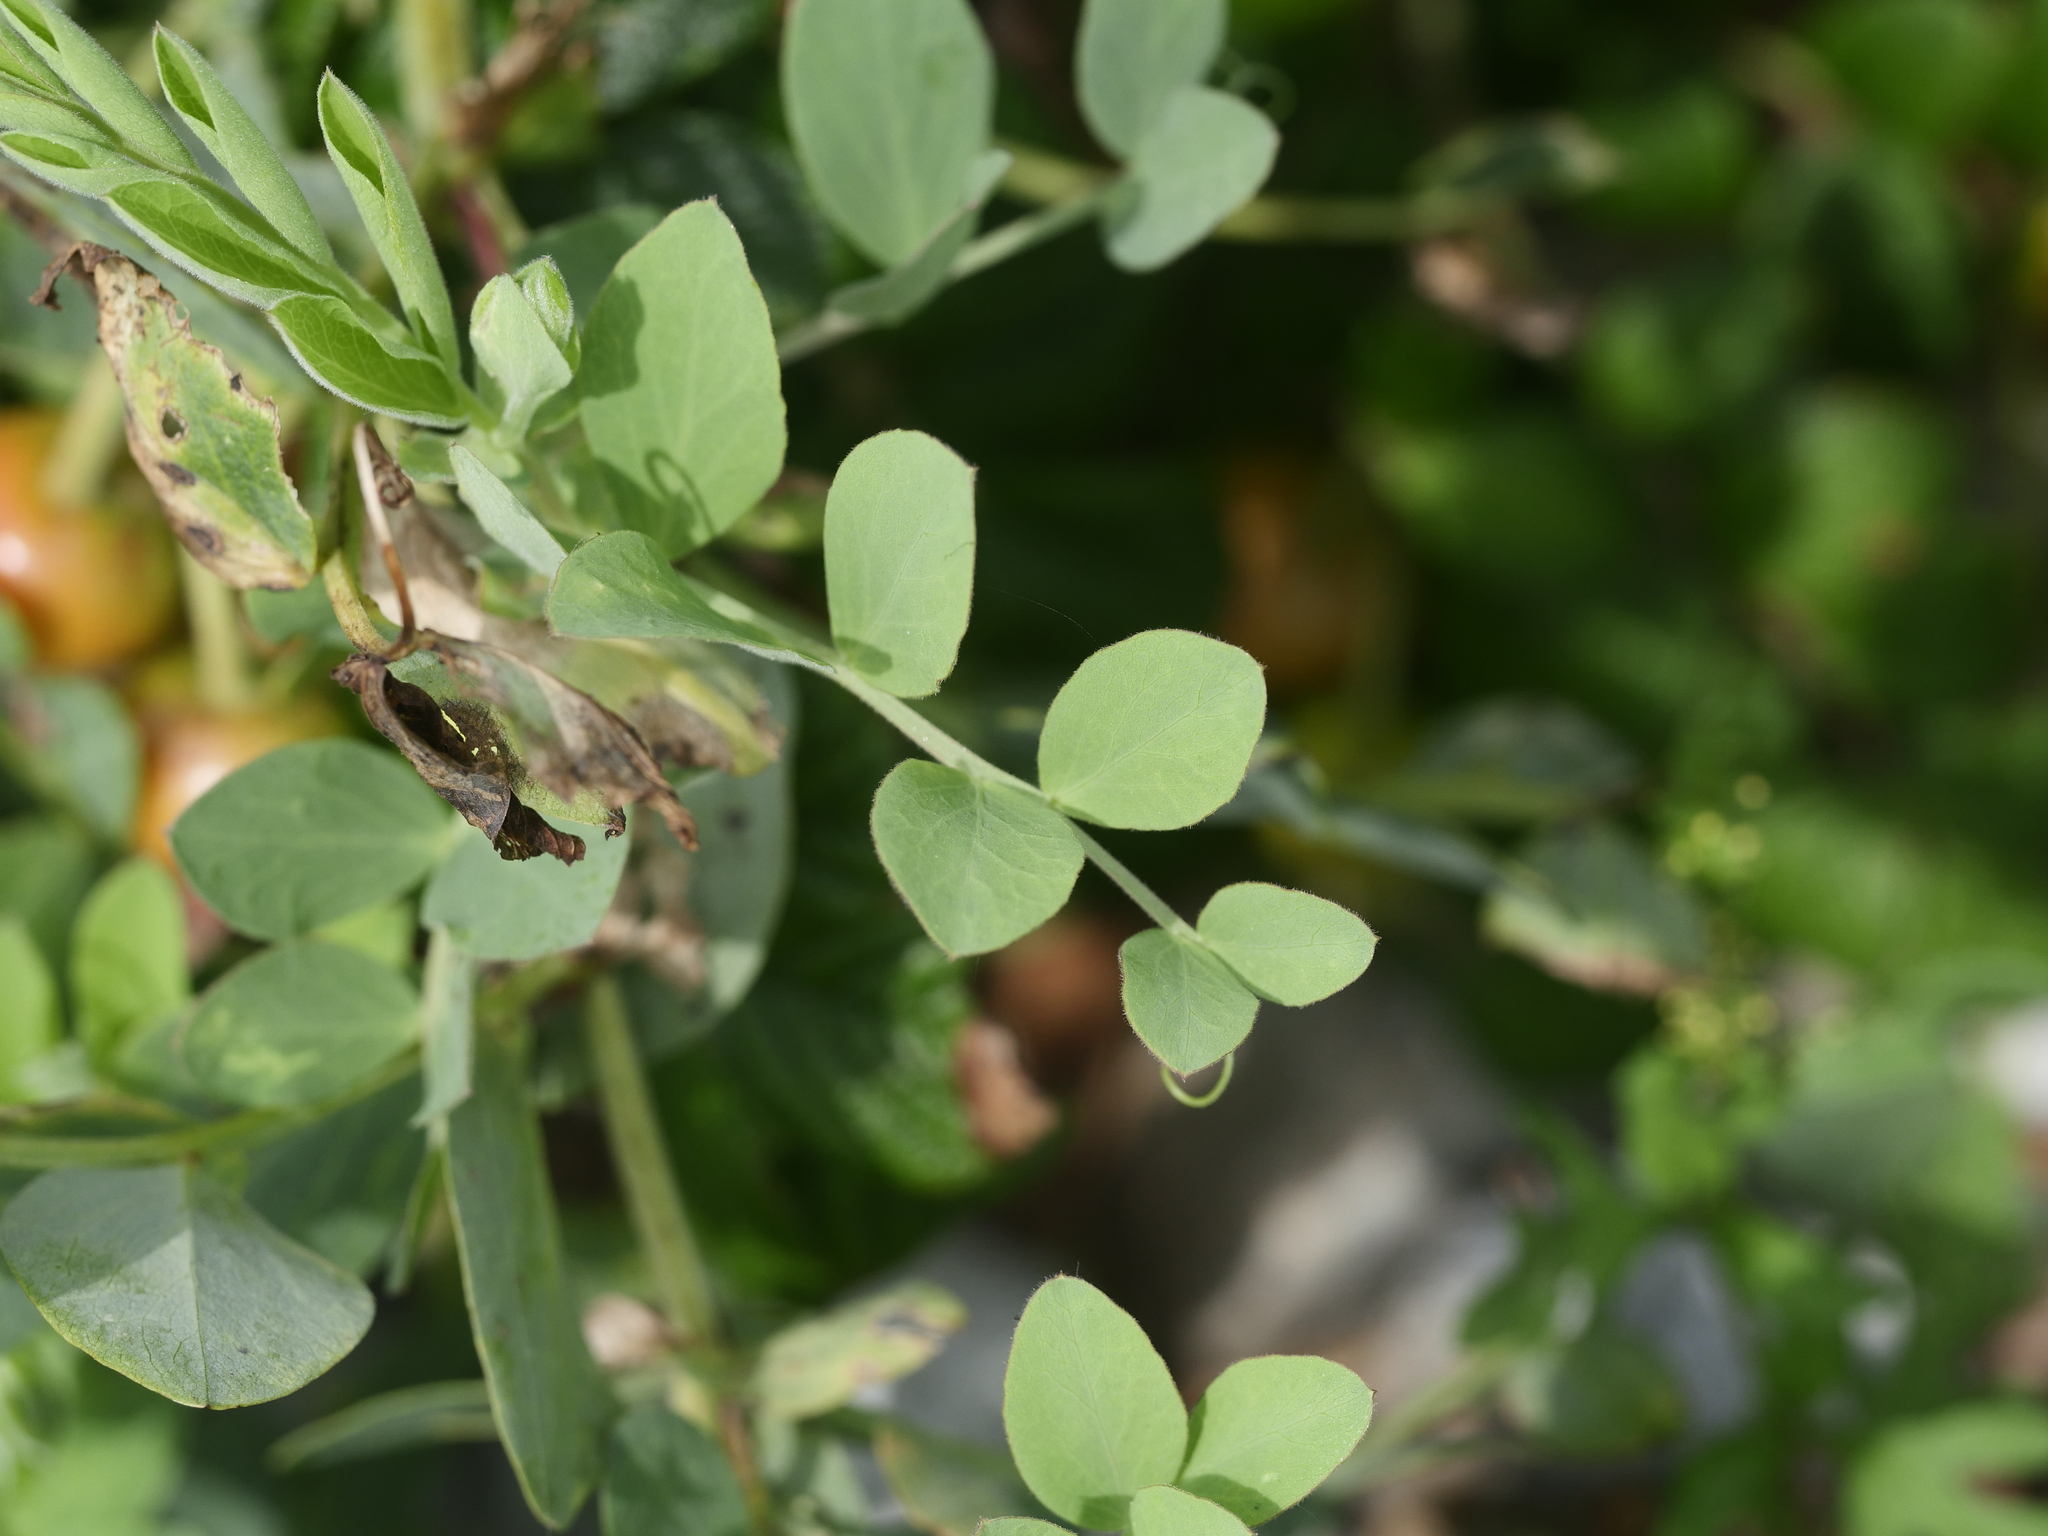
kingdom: Plantae
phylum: Tracheophyta
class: Magnoliopsida
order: Fabales
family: Fabaceae
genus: Lathyrus
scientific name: Lathyrus japonicus
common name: Sea pea
